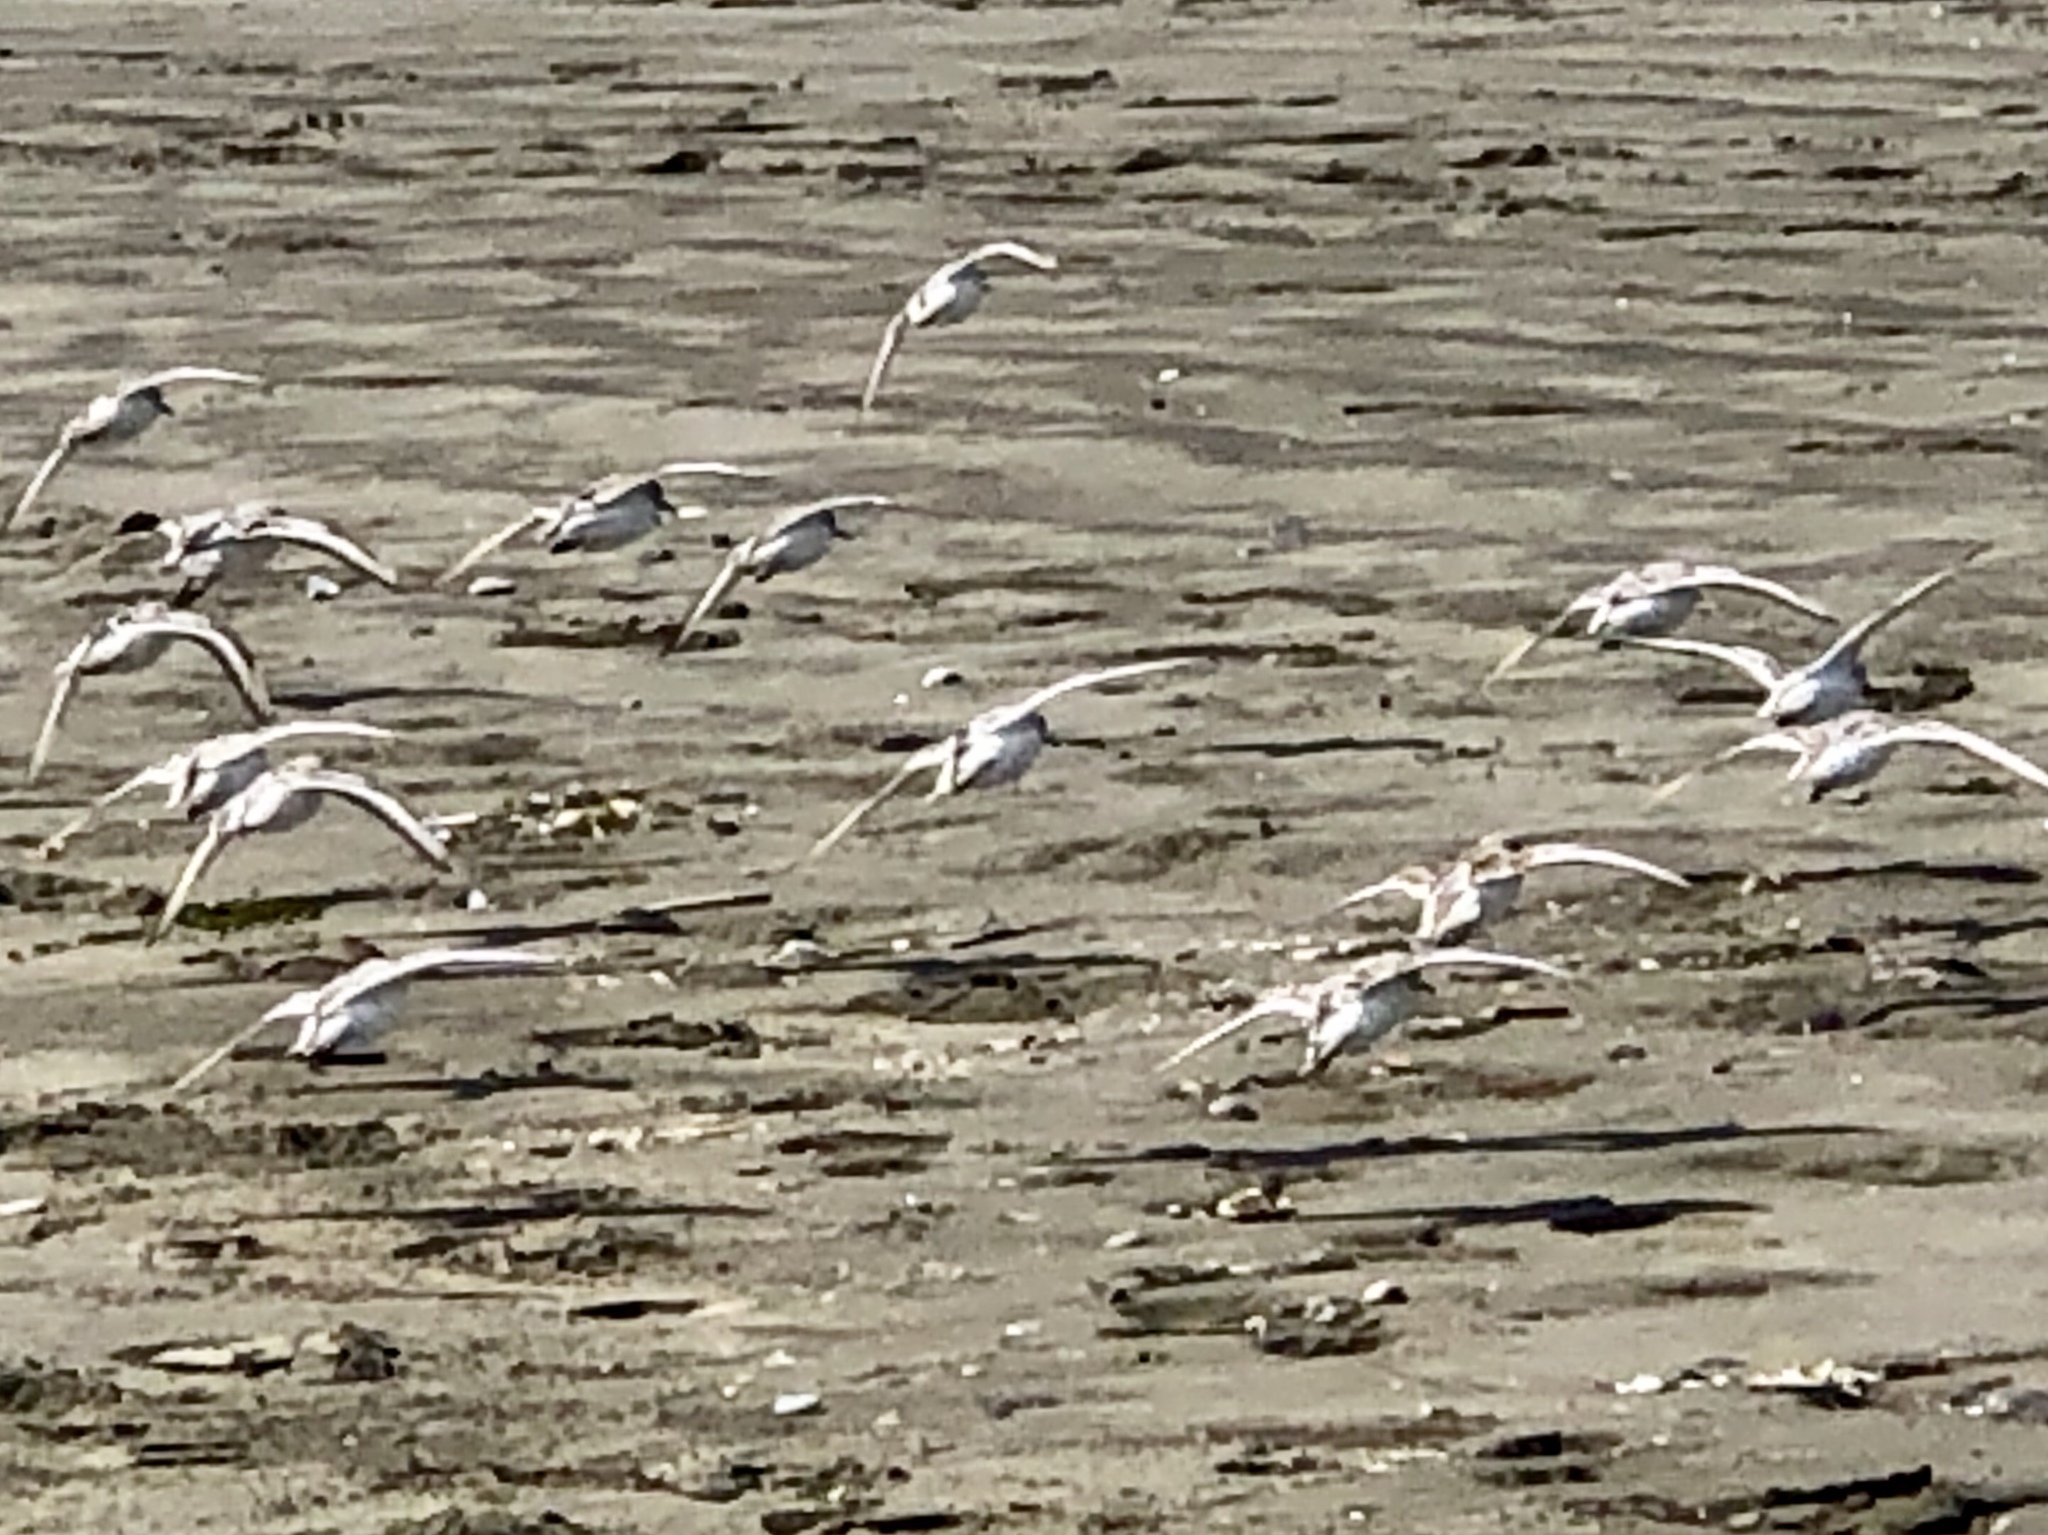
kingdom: Animalia
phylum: Chordata
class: Aves
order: Charadriiformes
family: Scolopacidae
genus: Calidris
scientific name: Calidris alba
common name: Sanderling
